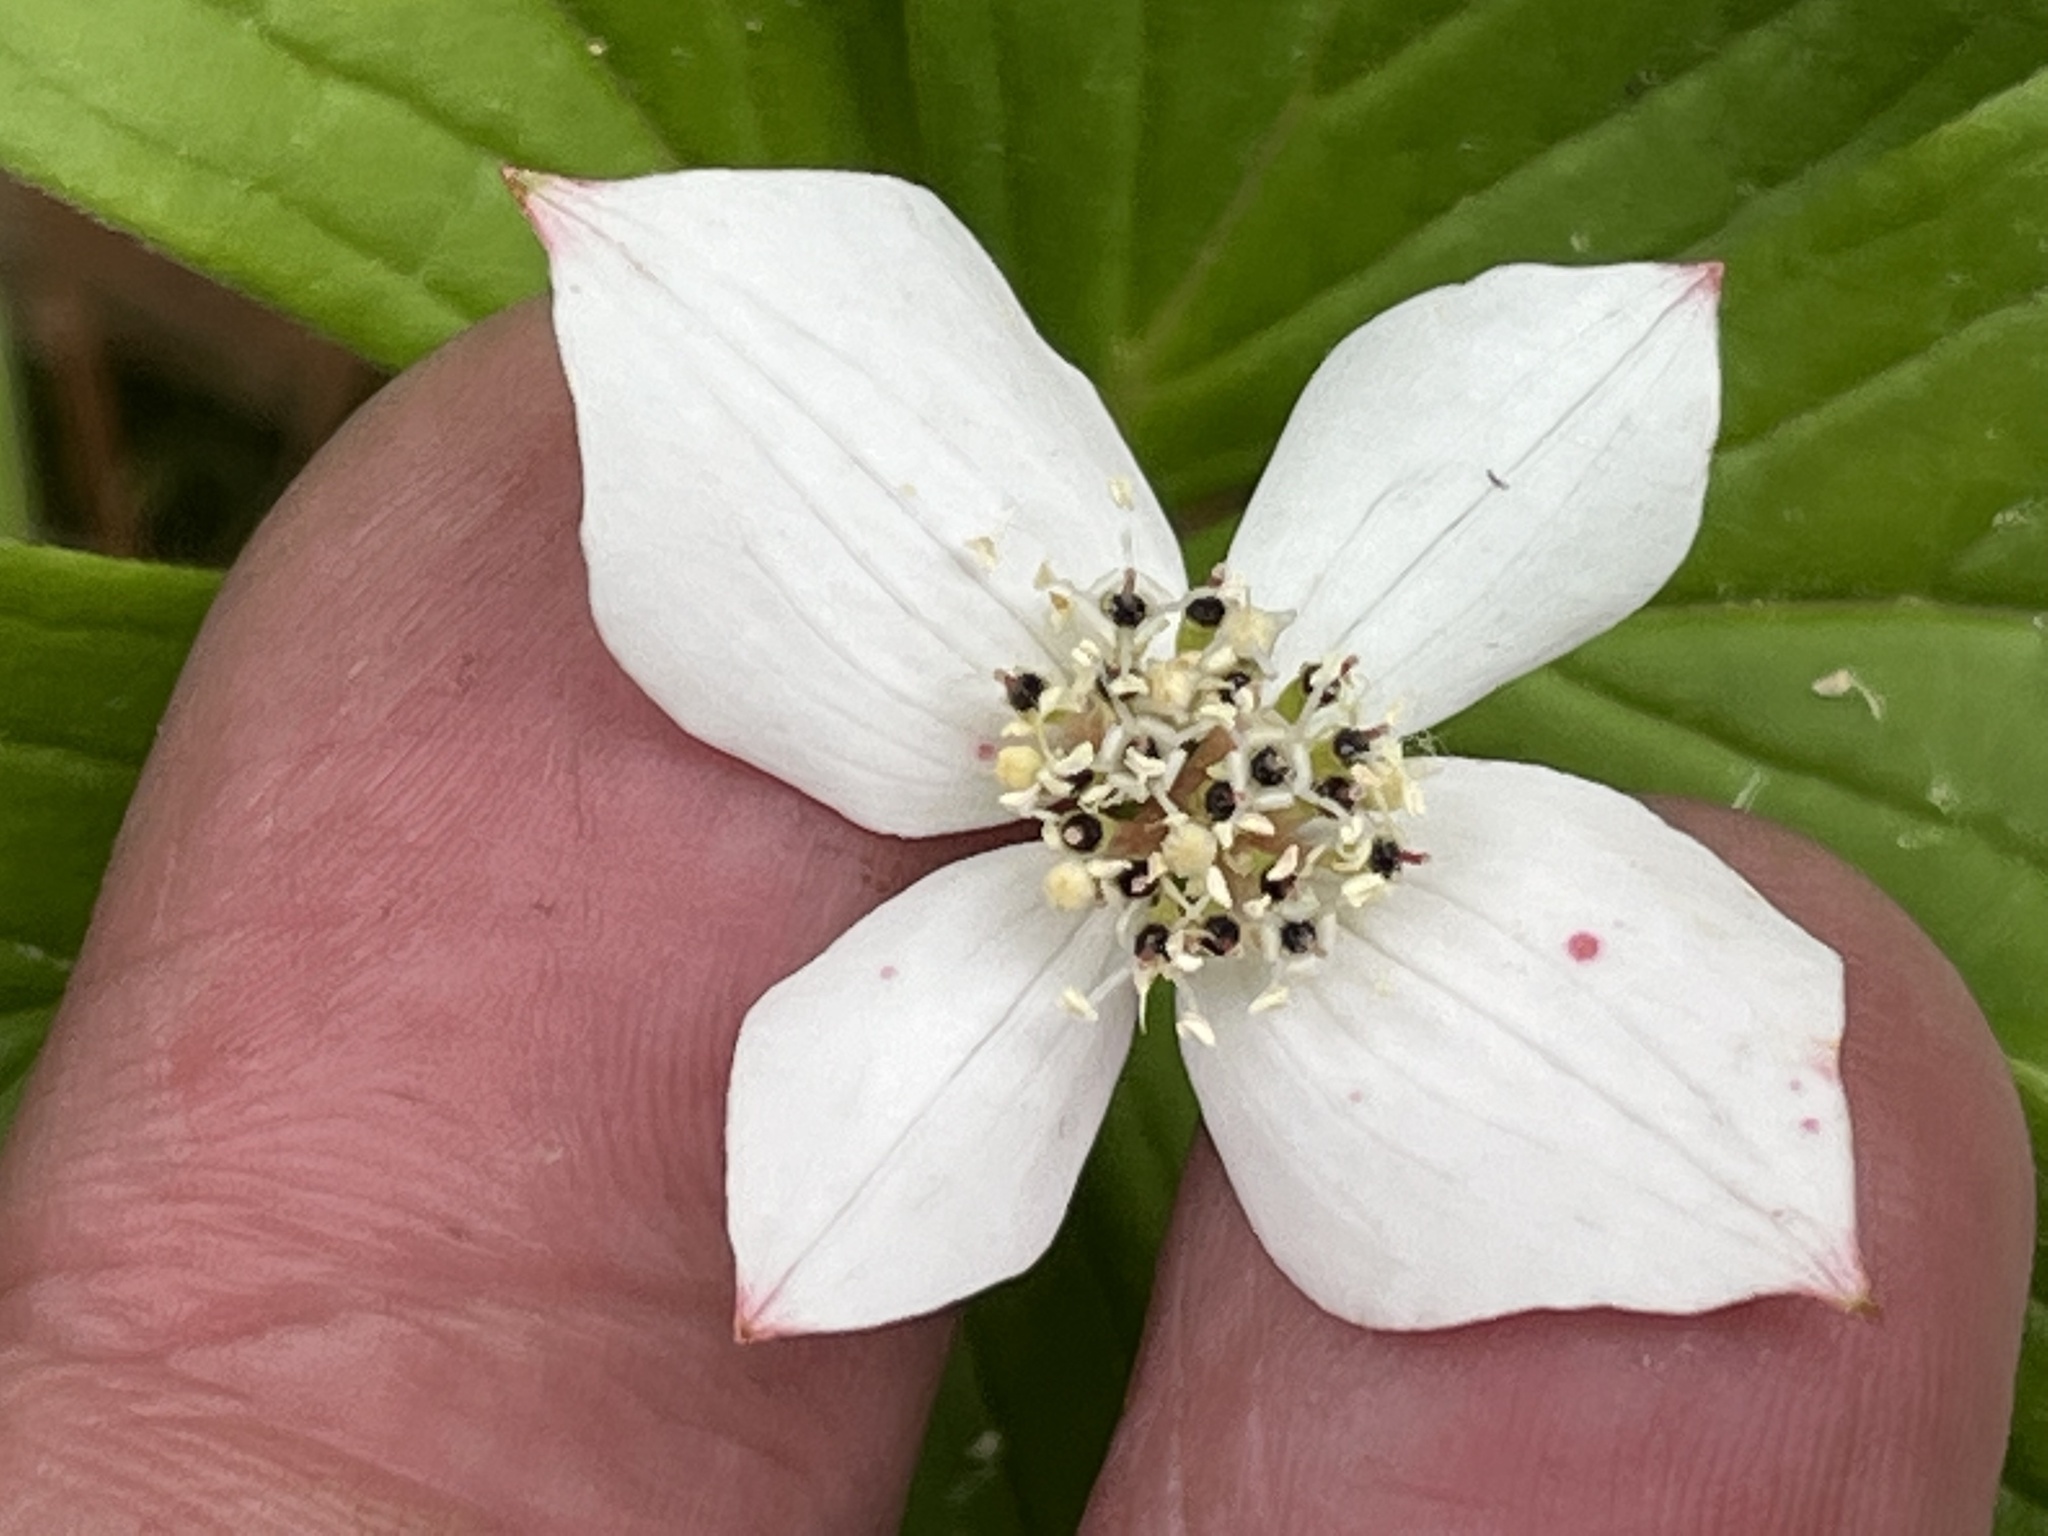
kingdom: Plantae
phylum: Tracheophyta
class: Magnoliopsida
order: Cornales
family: Cornaceae
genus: Cornus
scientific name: Cornus canadensis
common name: Creeping dogwood
